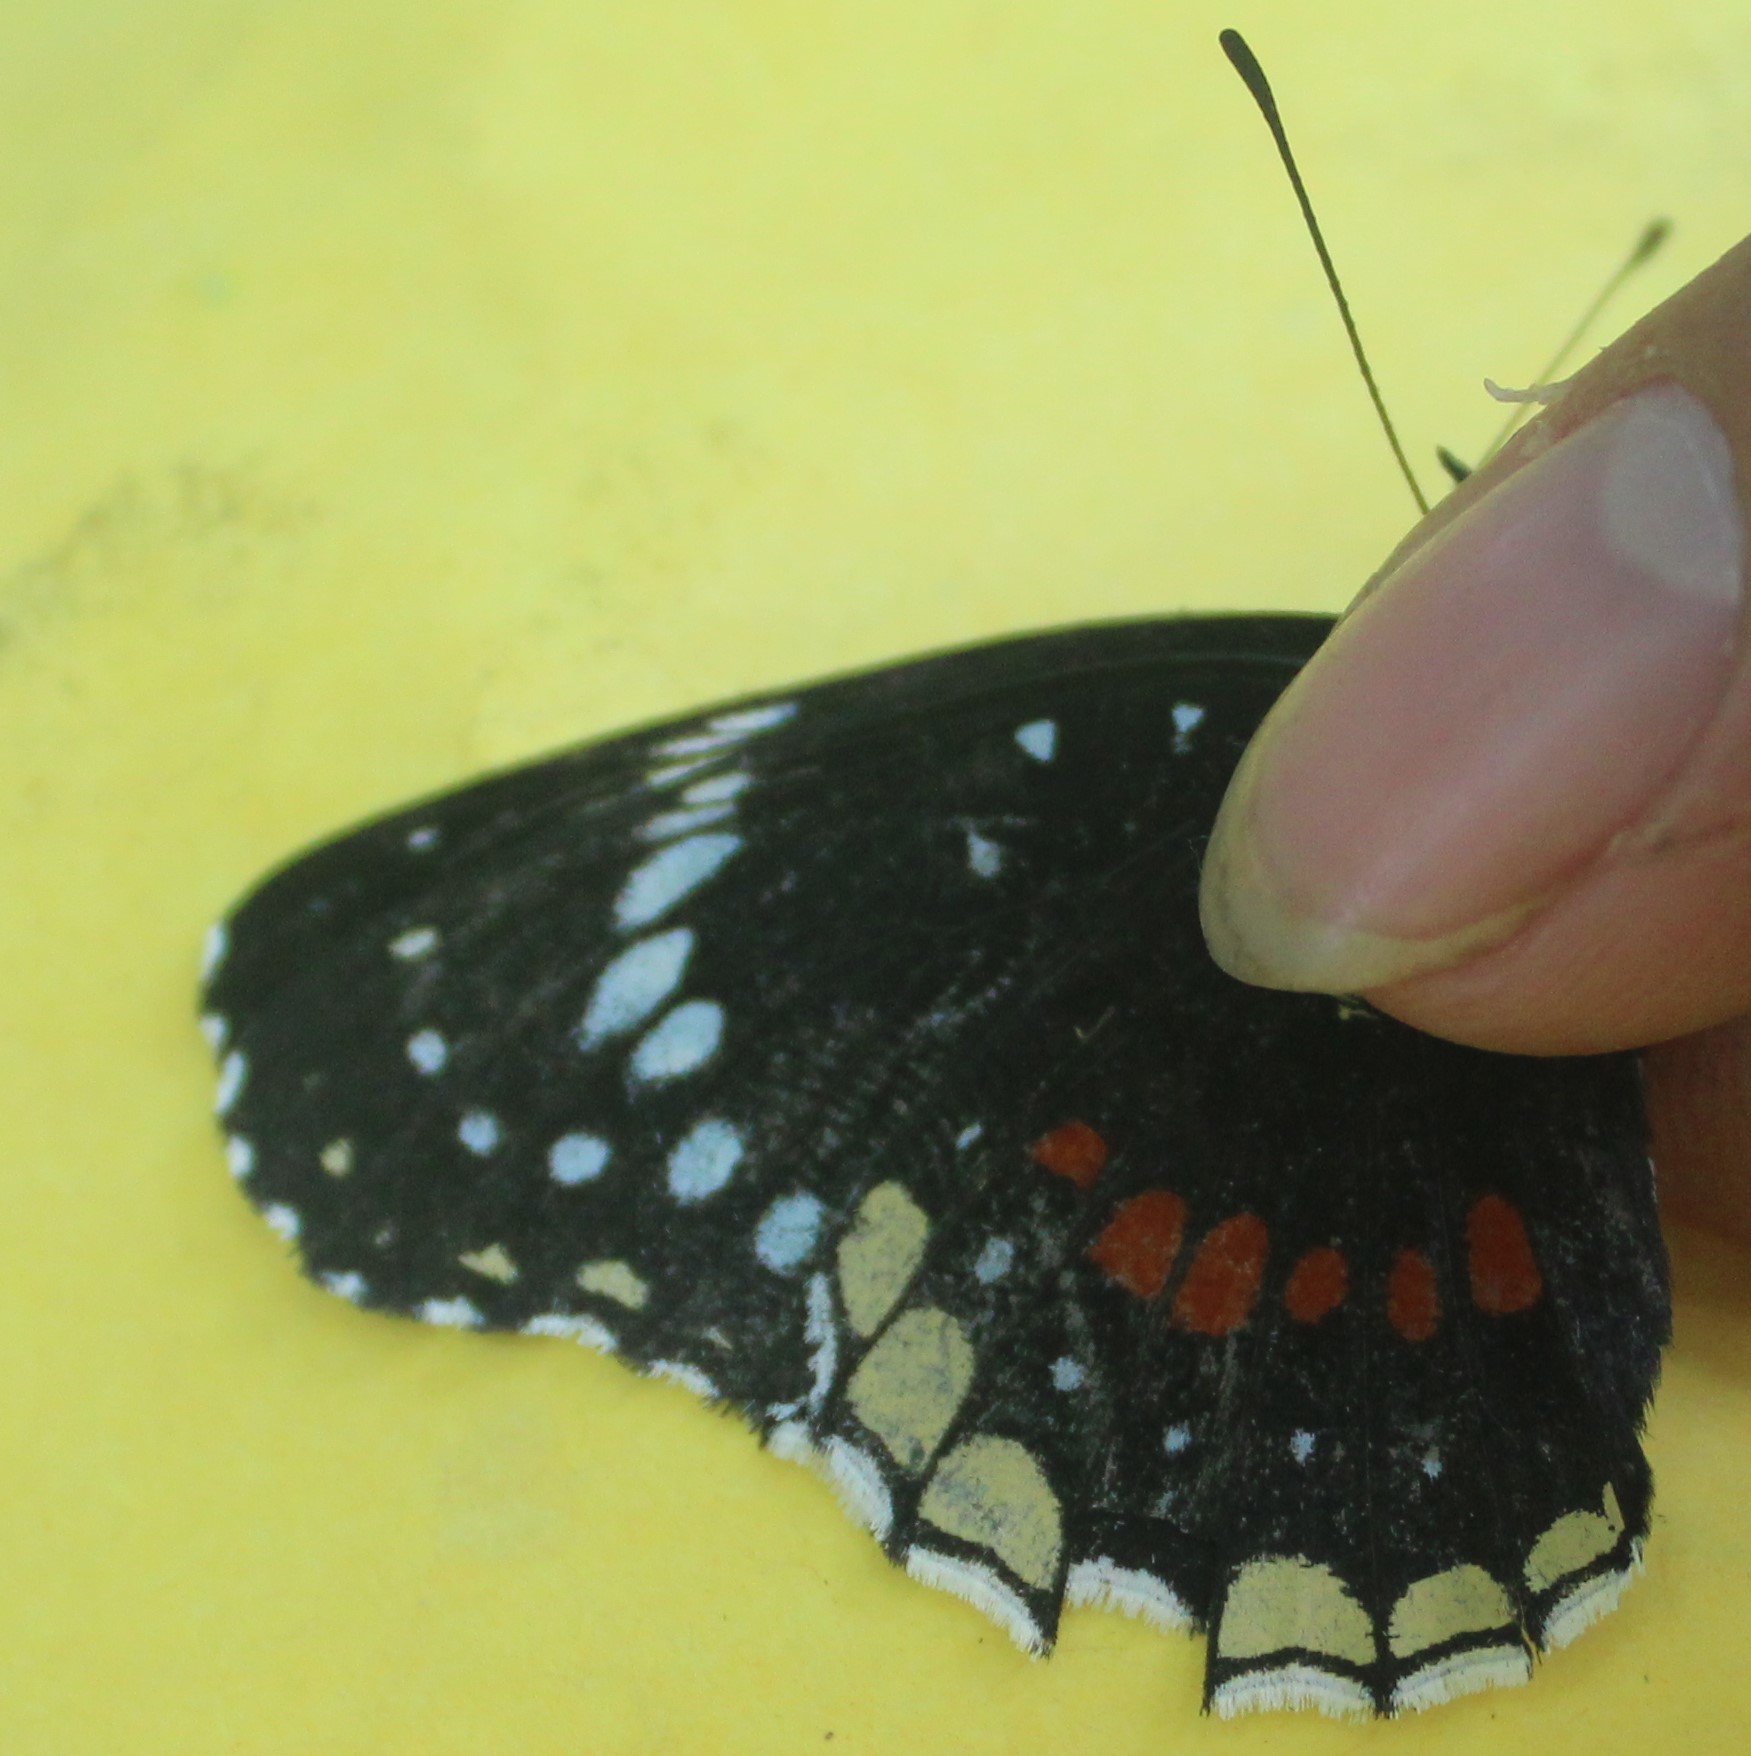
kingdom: Animalia
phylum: Arthropoda
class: Insecta
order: Lepidoptera
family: Nymphalidae
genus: Chlosyne
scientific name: Chlosyne hippodrome
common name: Simple patch
